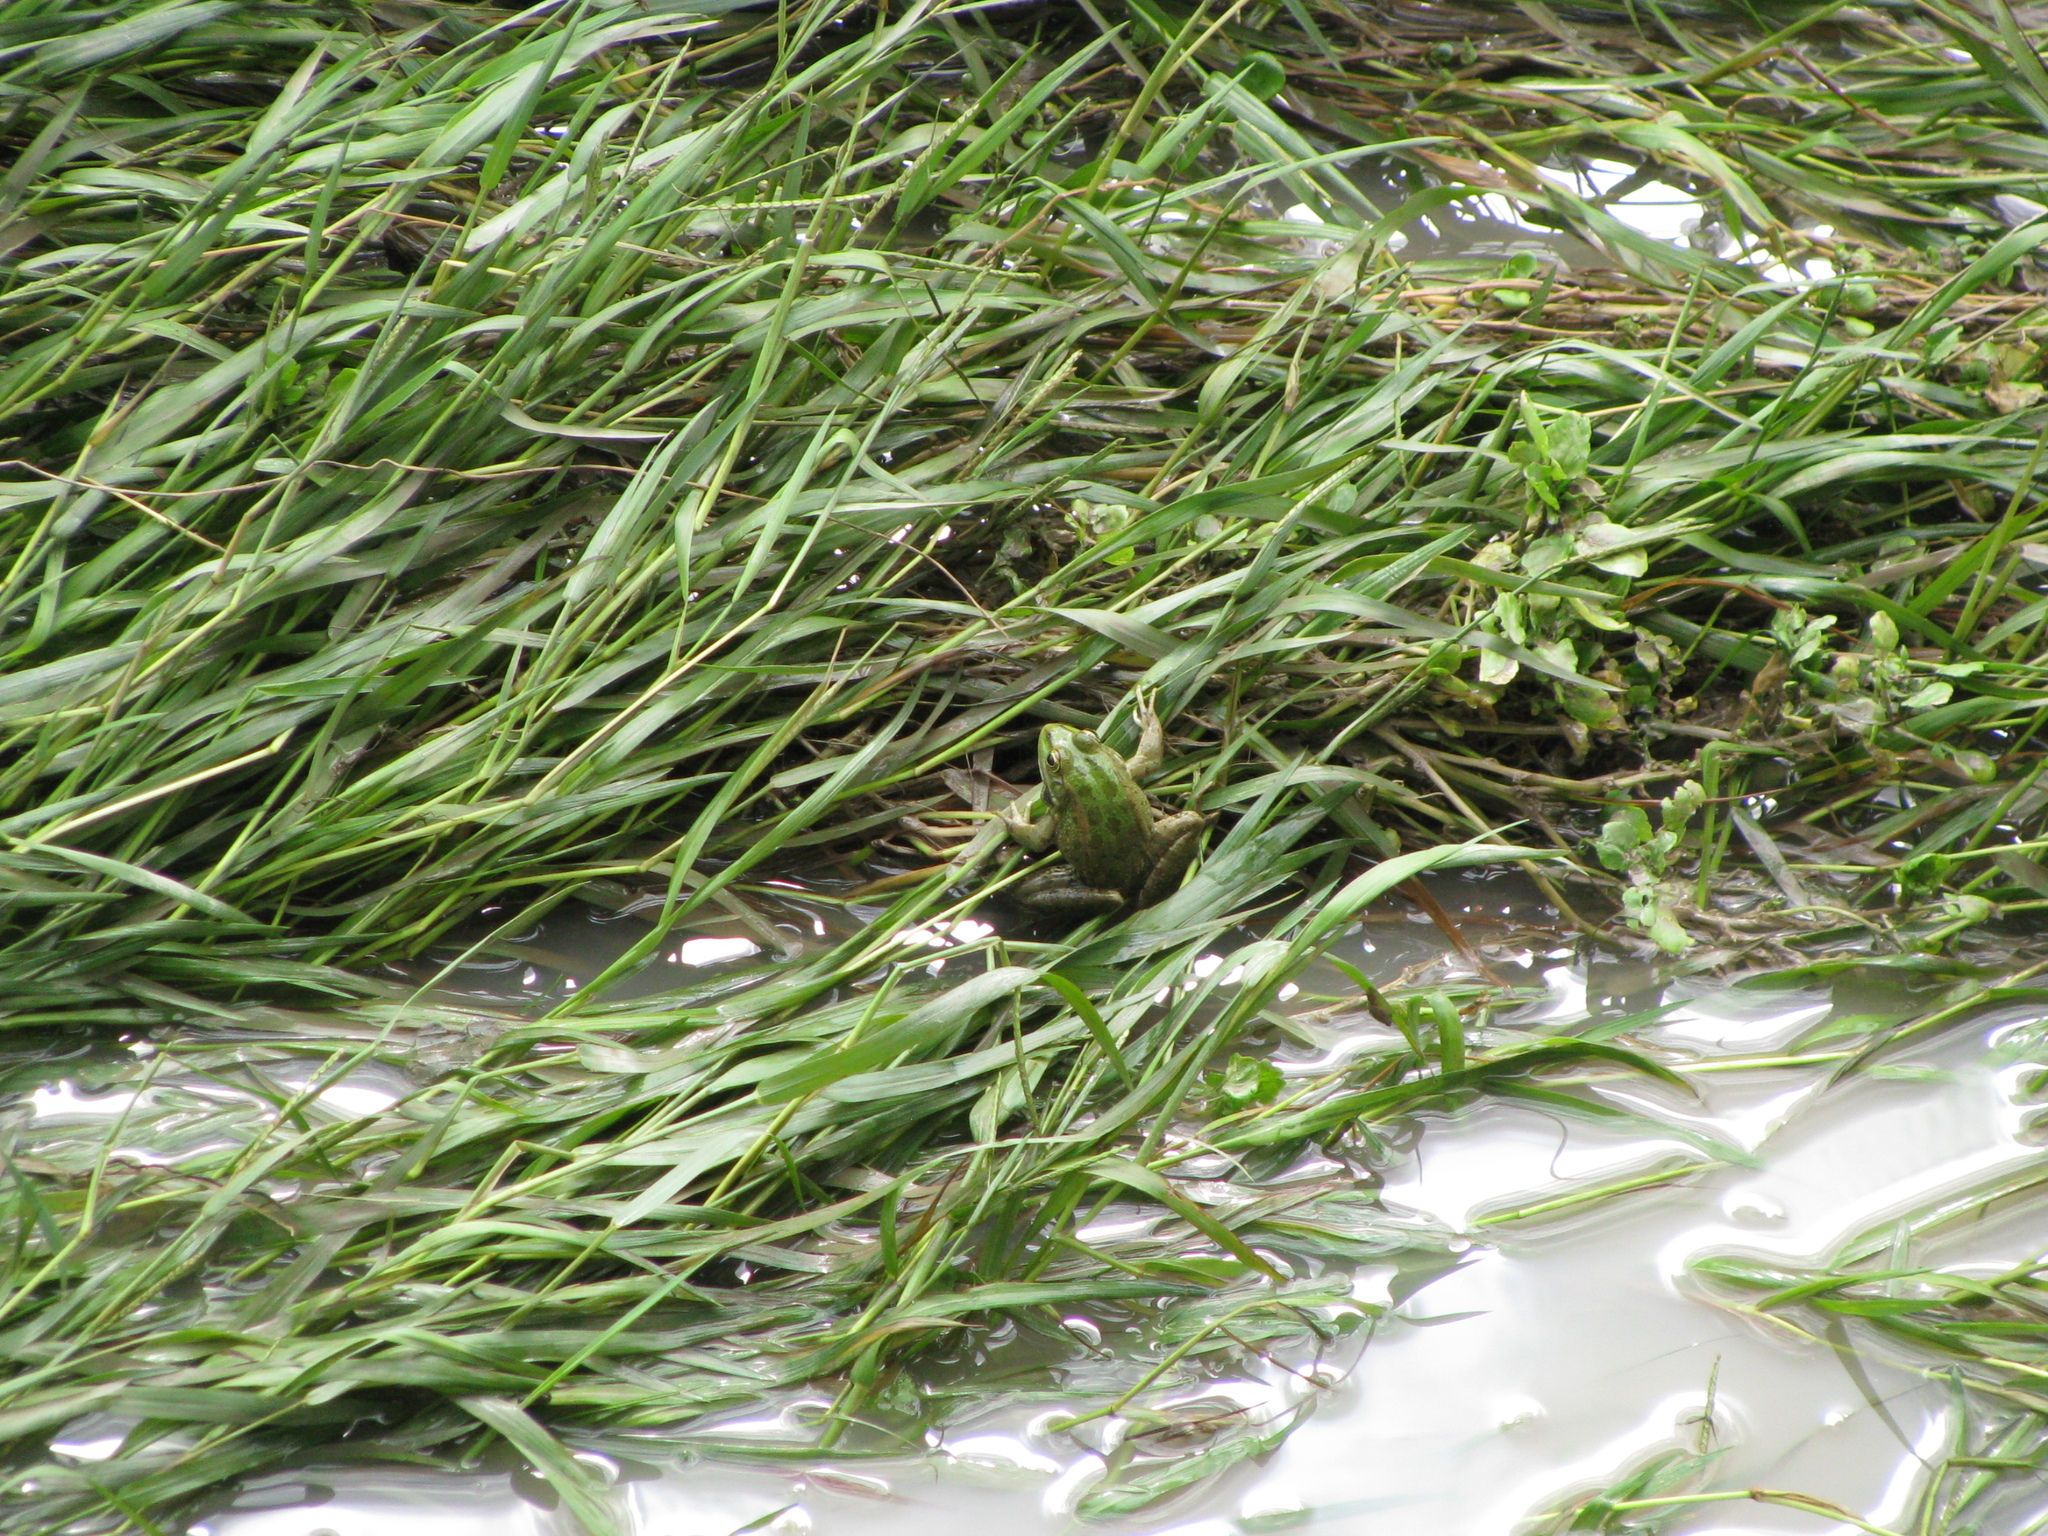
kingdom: Animalia
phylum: Chordata
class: Amphibia
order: Anura
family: Ranidae
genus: Pelophylax
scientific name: Pelophylax ridibundus
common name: Marsh frog
